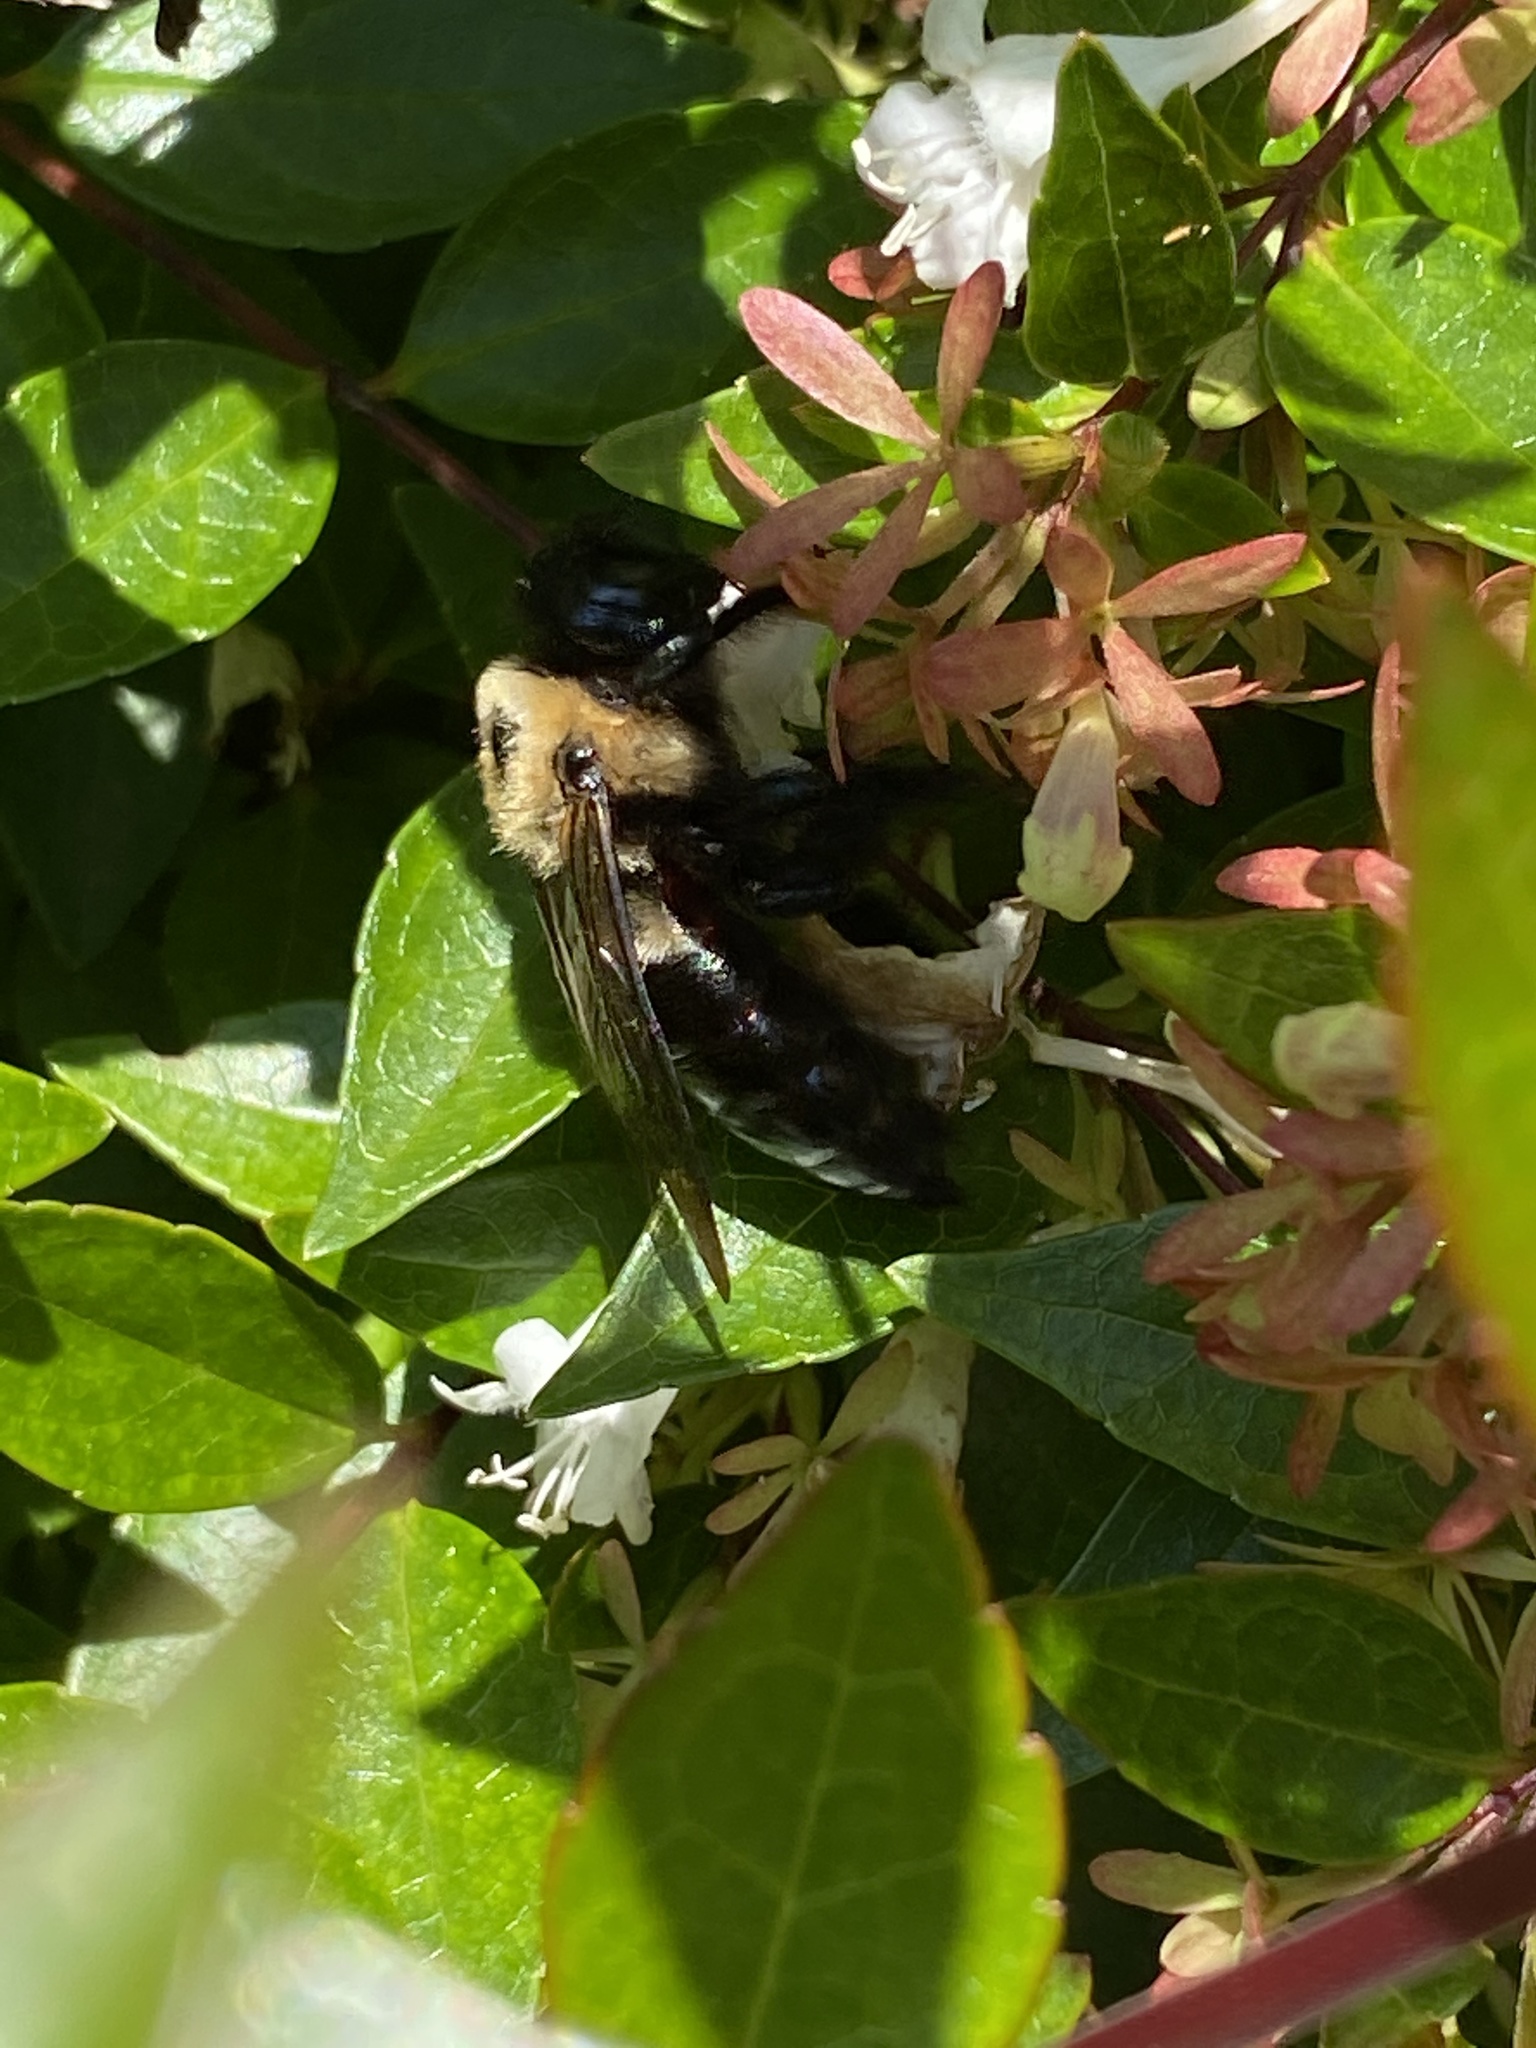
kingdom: Animalia
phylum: Arthropoda
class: Insecta
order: Hymenoptera
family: Apidae
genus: Xylocopa
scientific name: Xylocopa virginica
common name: Carpenter bee
